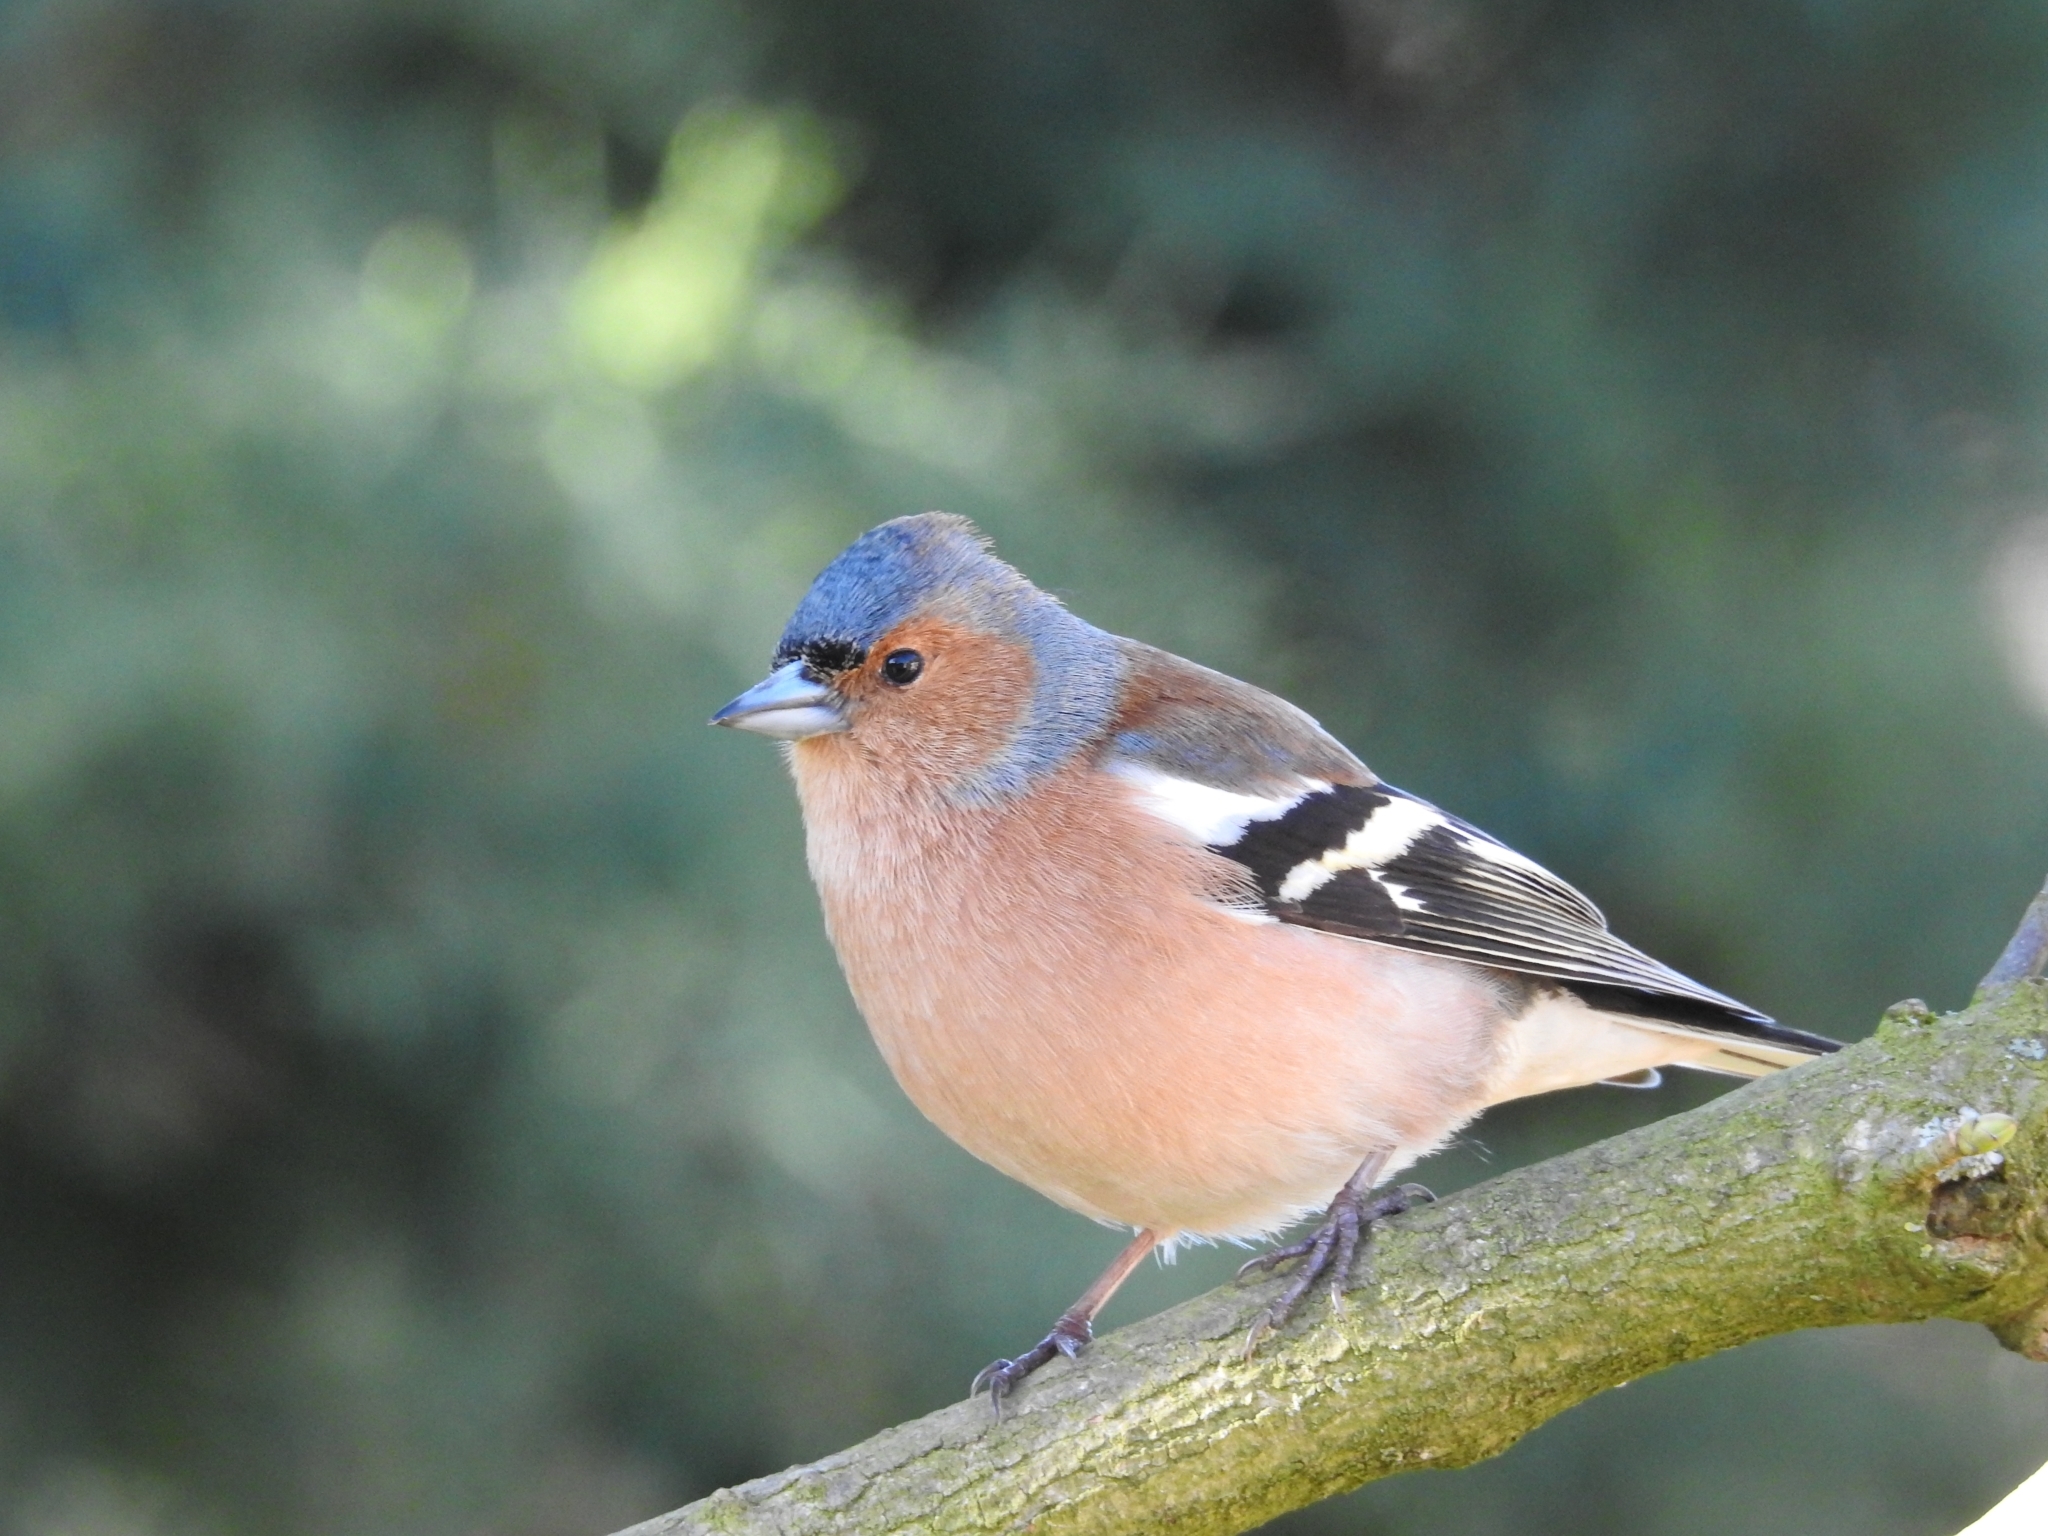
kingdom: Animalia
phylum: Chordata
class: Aves
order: Passeriformes
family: Fringillidae
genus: Fringilla
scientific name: Fringilla coelebs
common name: Common chaffinch
